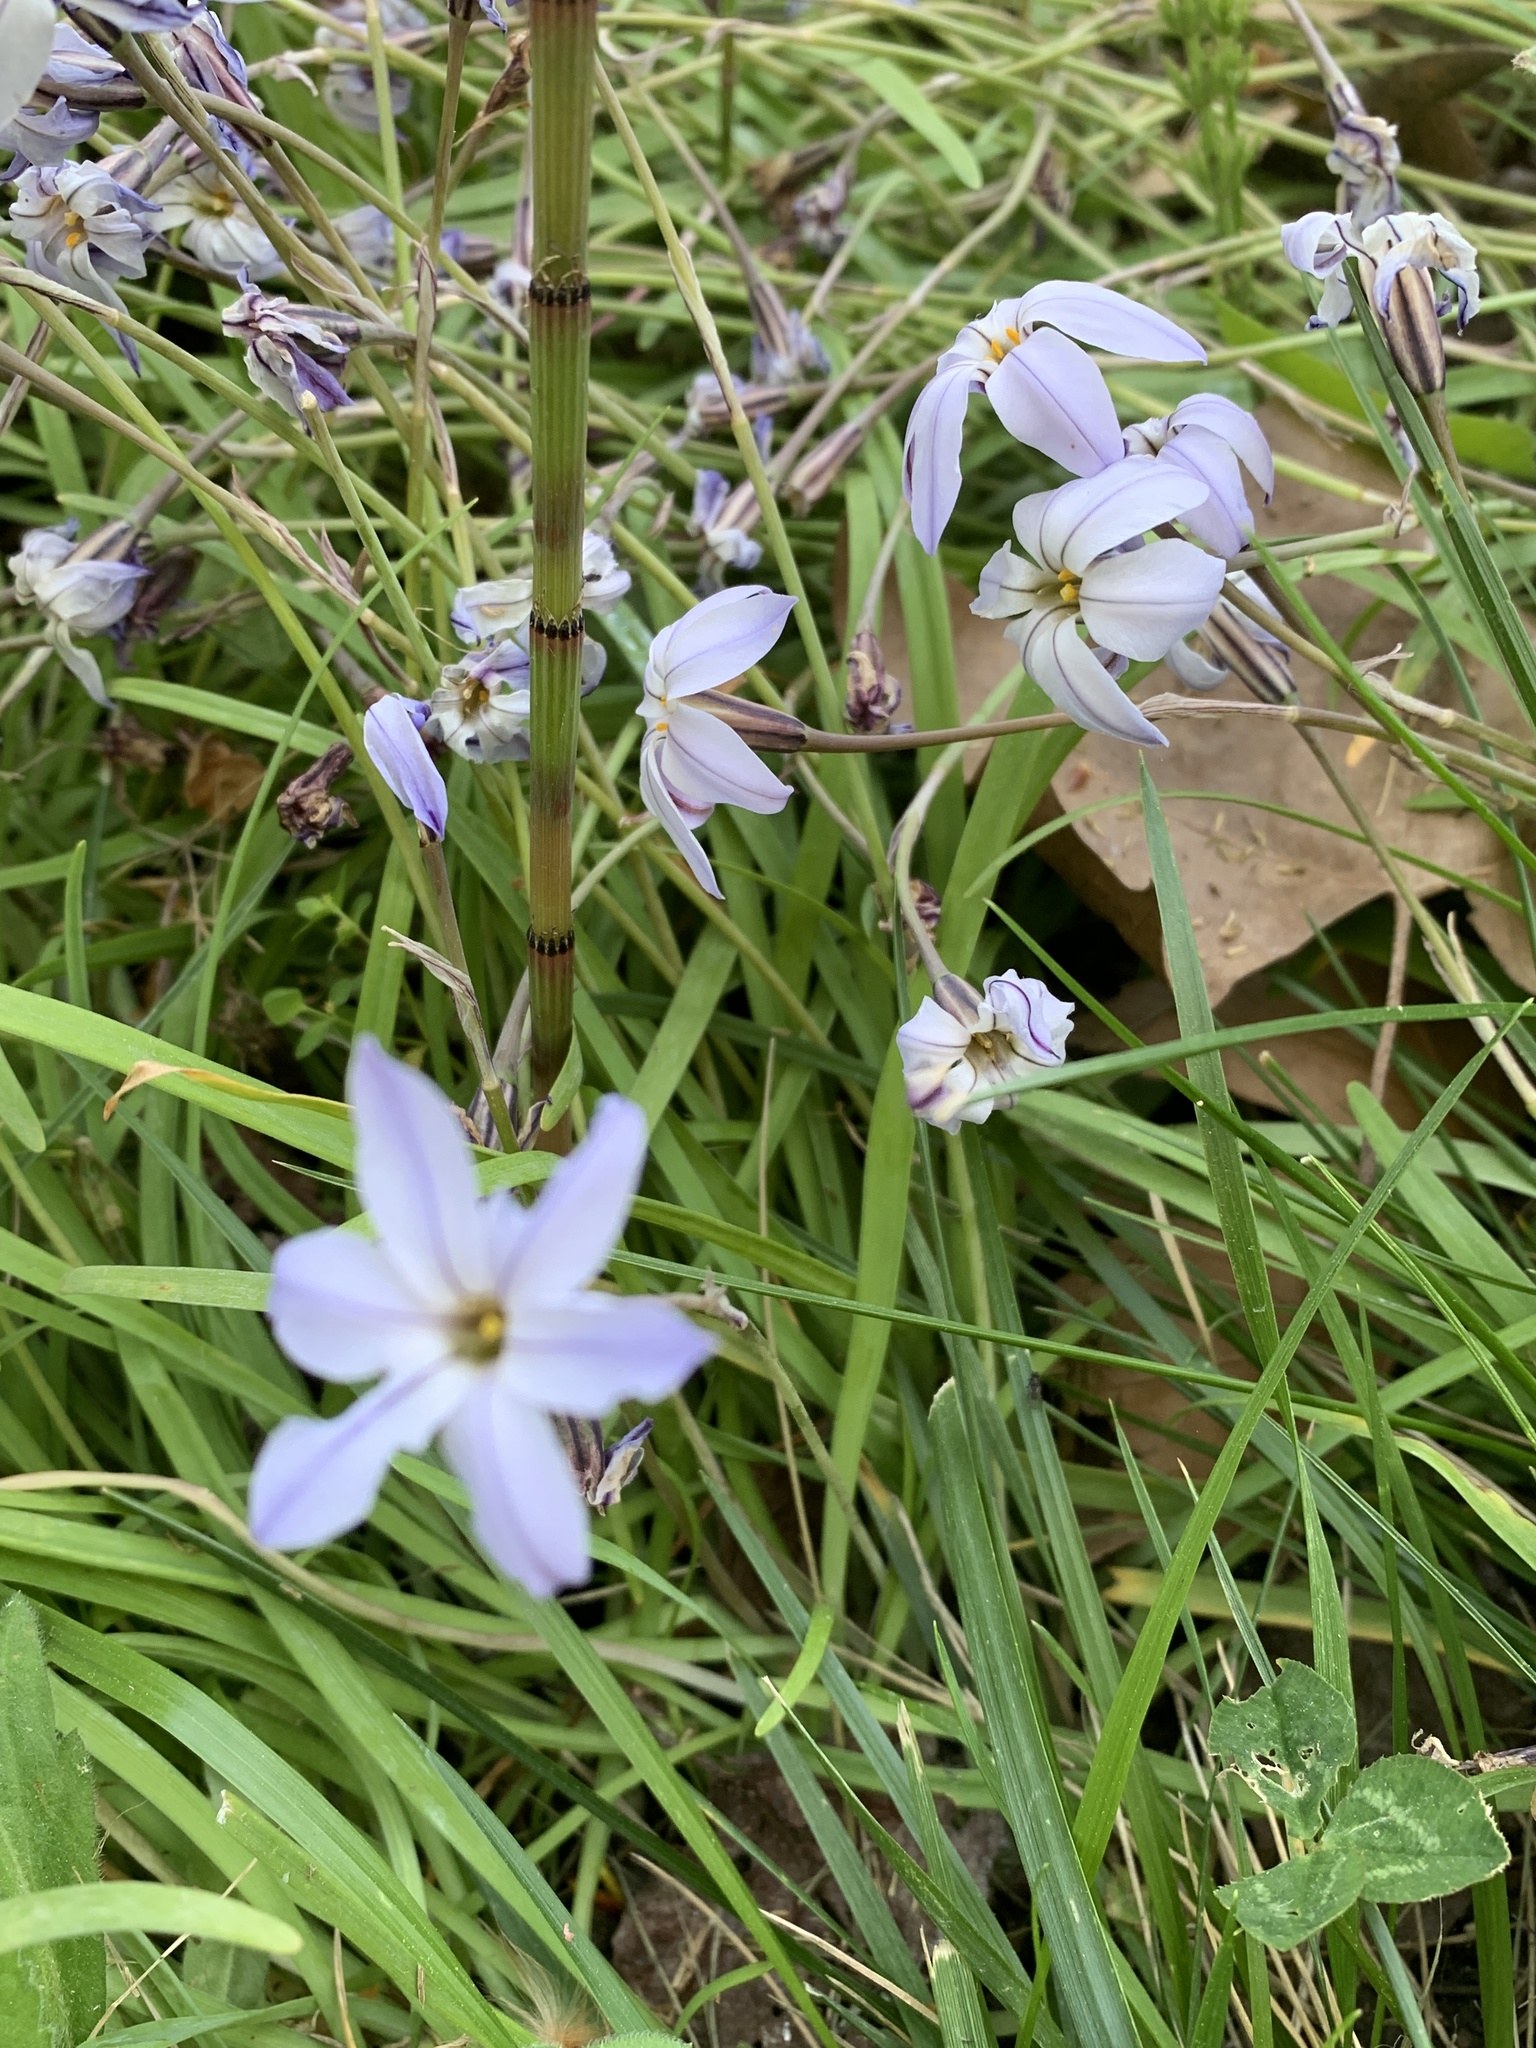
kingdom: Plantae
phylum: Tracheophyta
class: Liliopsida
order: Asparagales
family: Amaryllidaceae
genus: Ipheion
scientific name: Ipheion uniflorum
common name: Spring starflower
